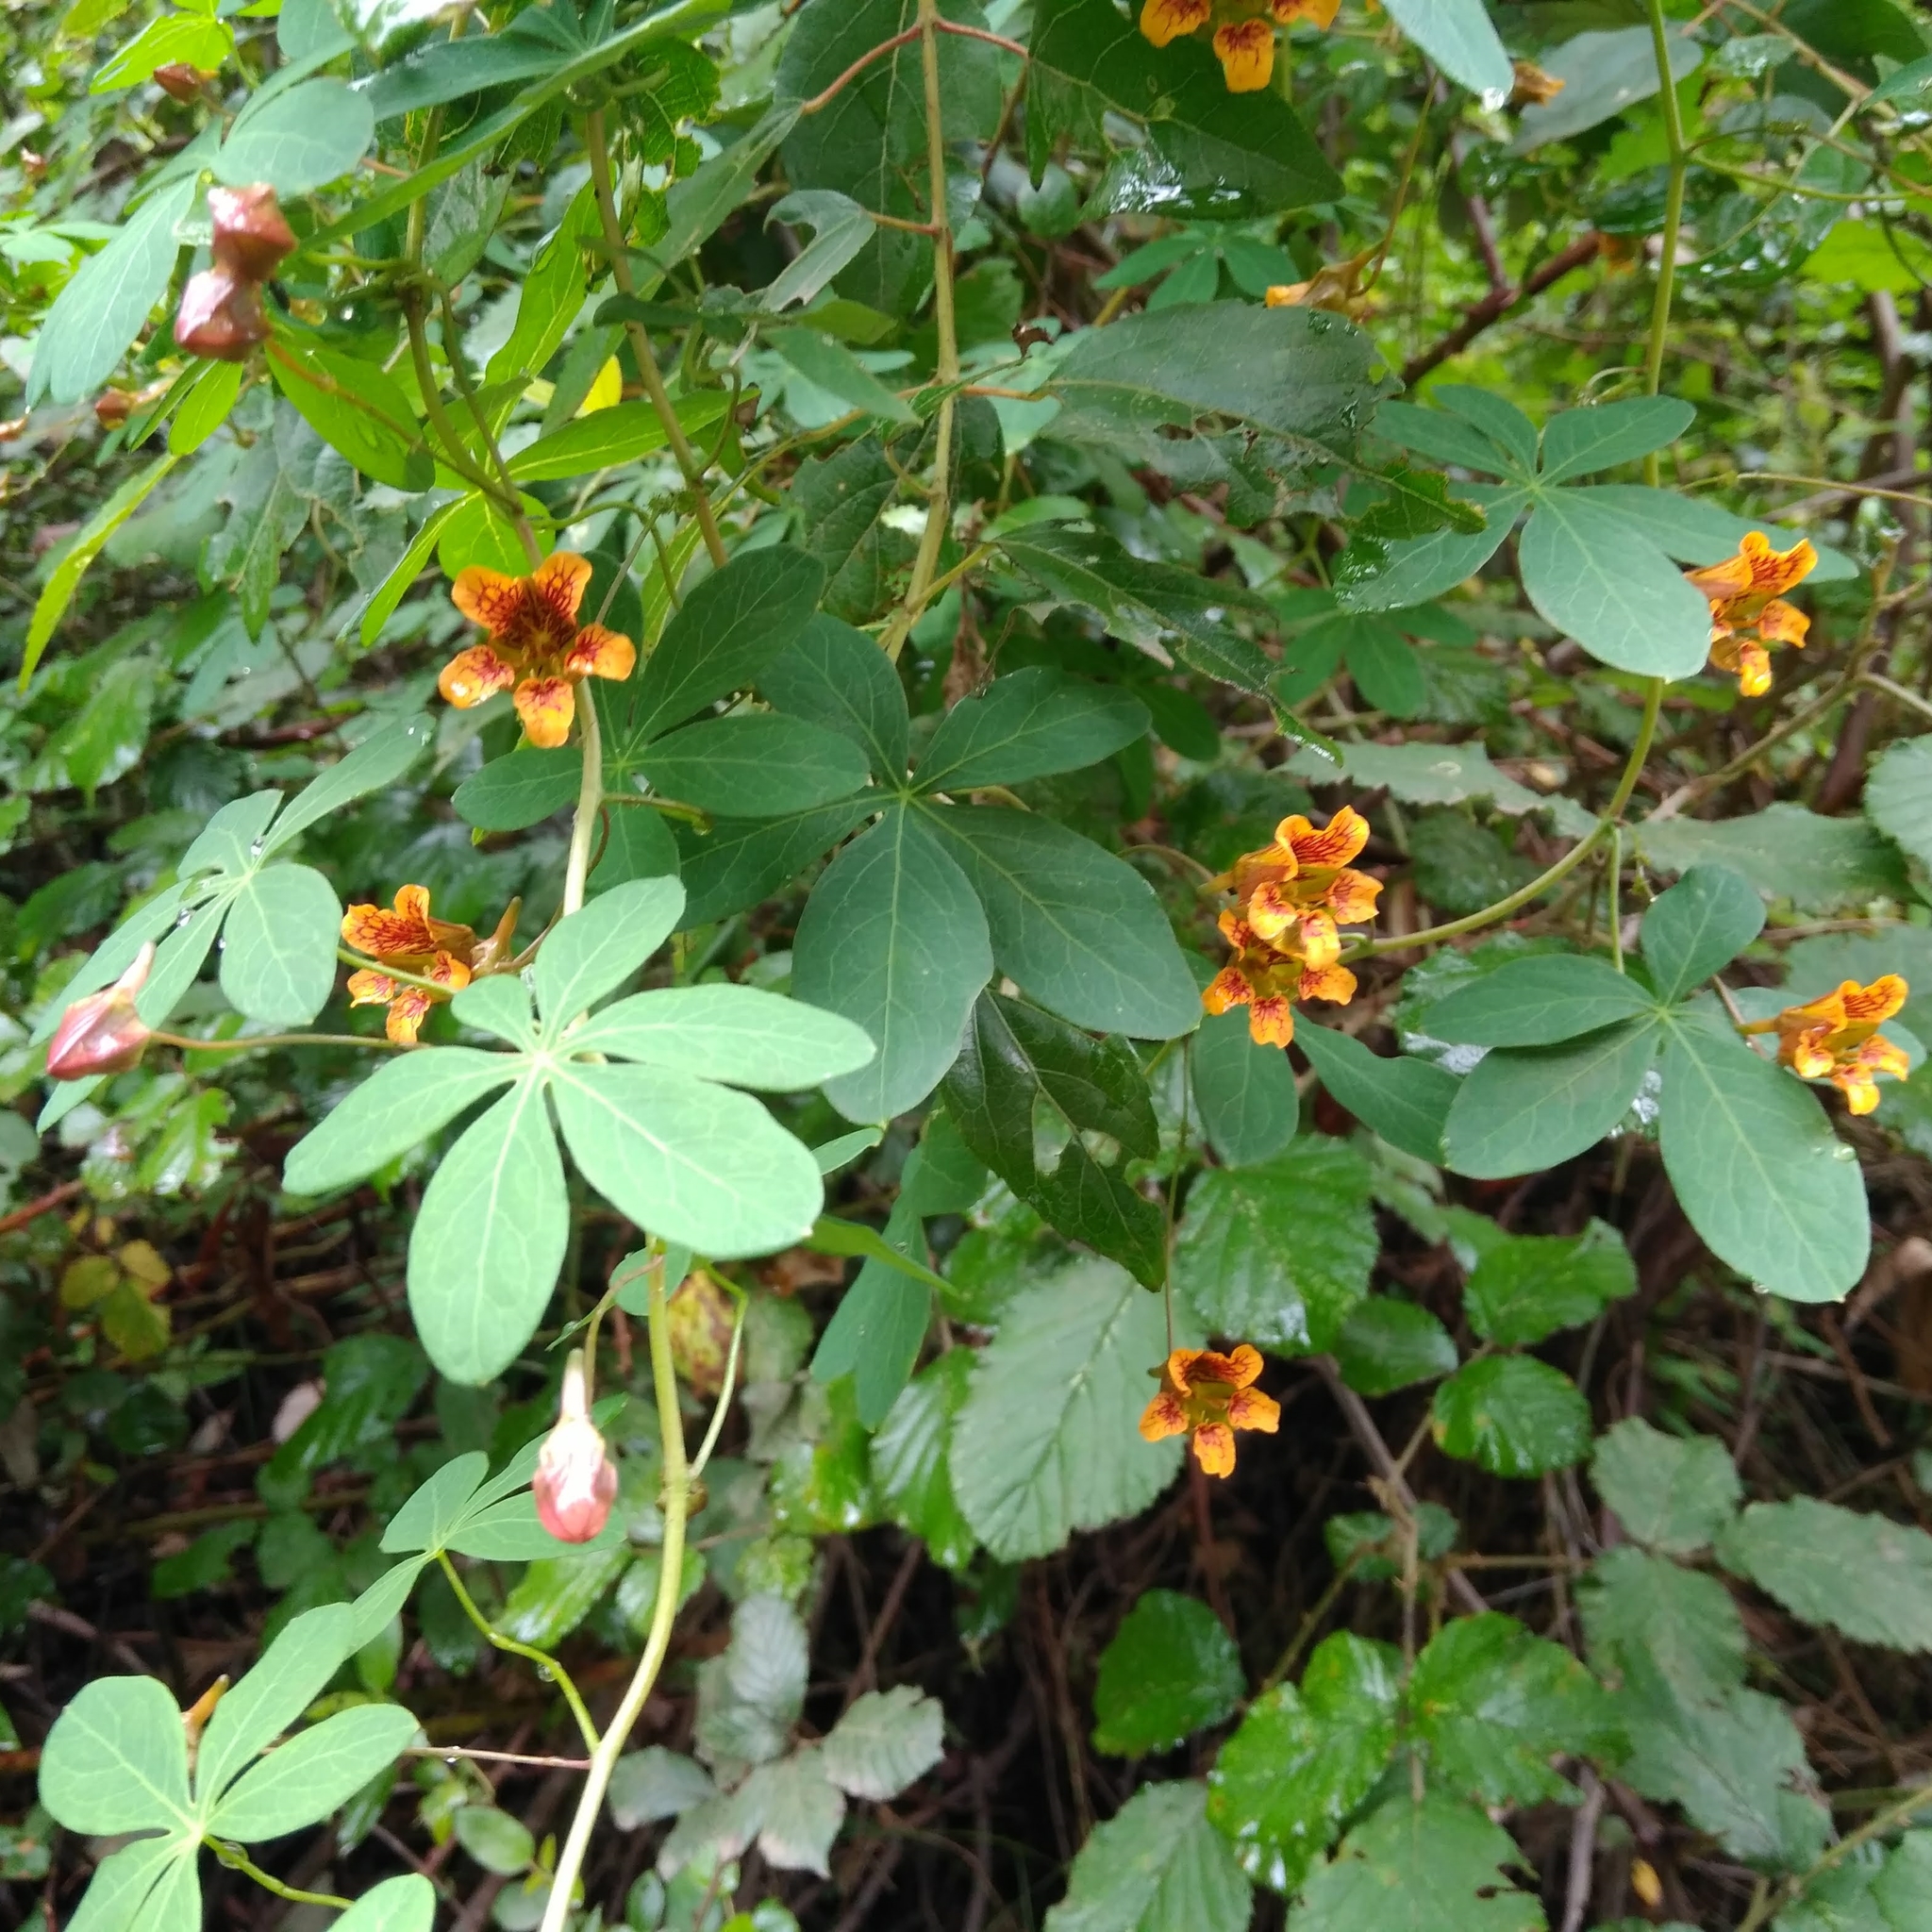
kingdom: Plantae
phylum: Tracheophyta
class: Magnoliopsida
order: Brassicales
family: Tropaeolaceae
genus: Tropaeolum
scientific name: Tropaeolum ciliatum
